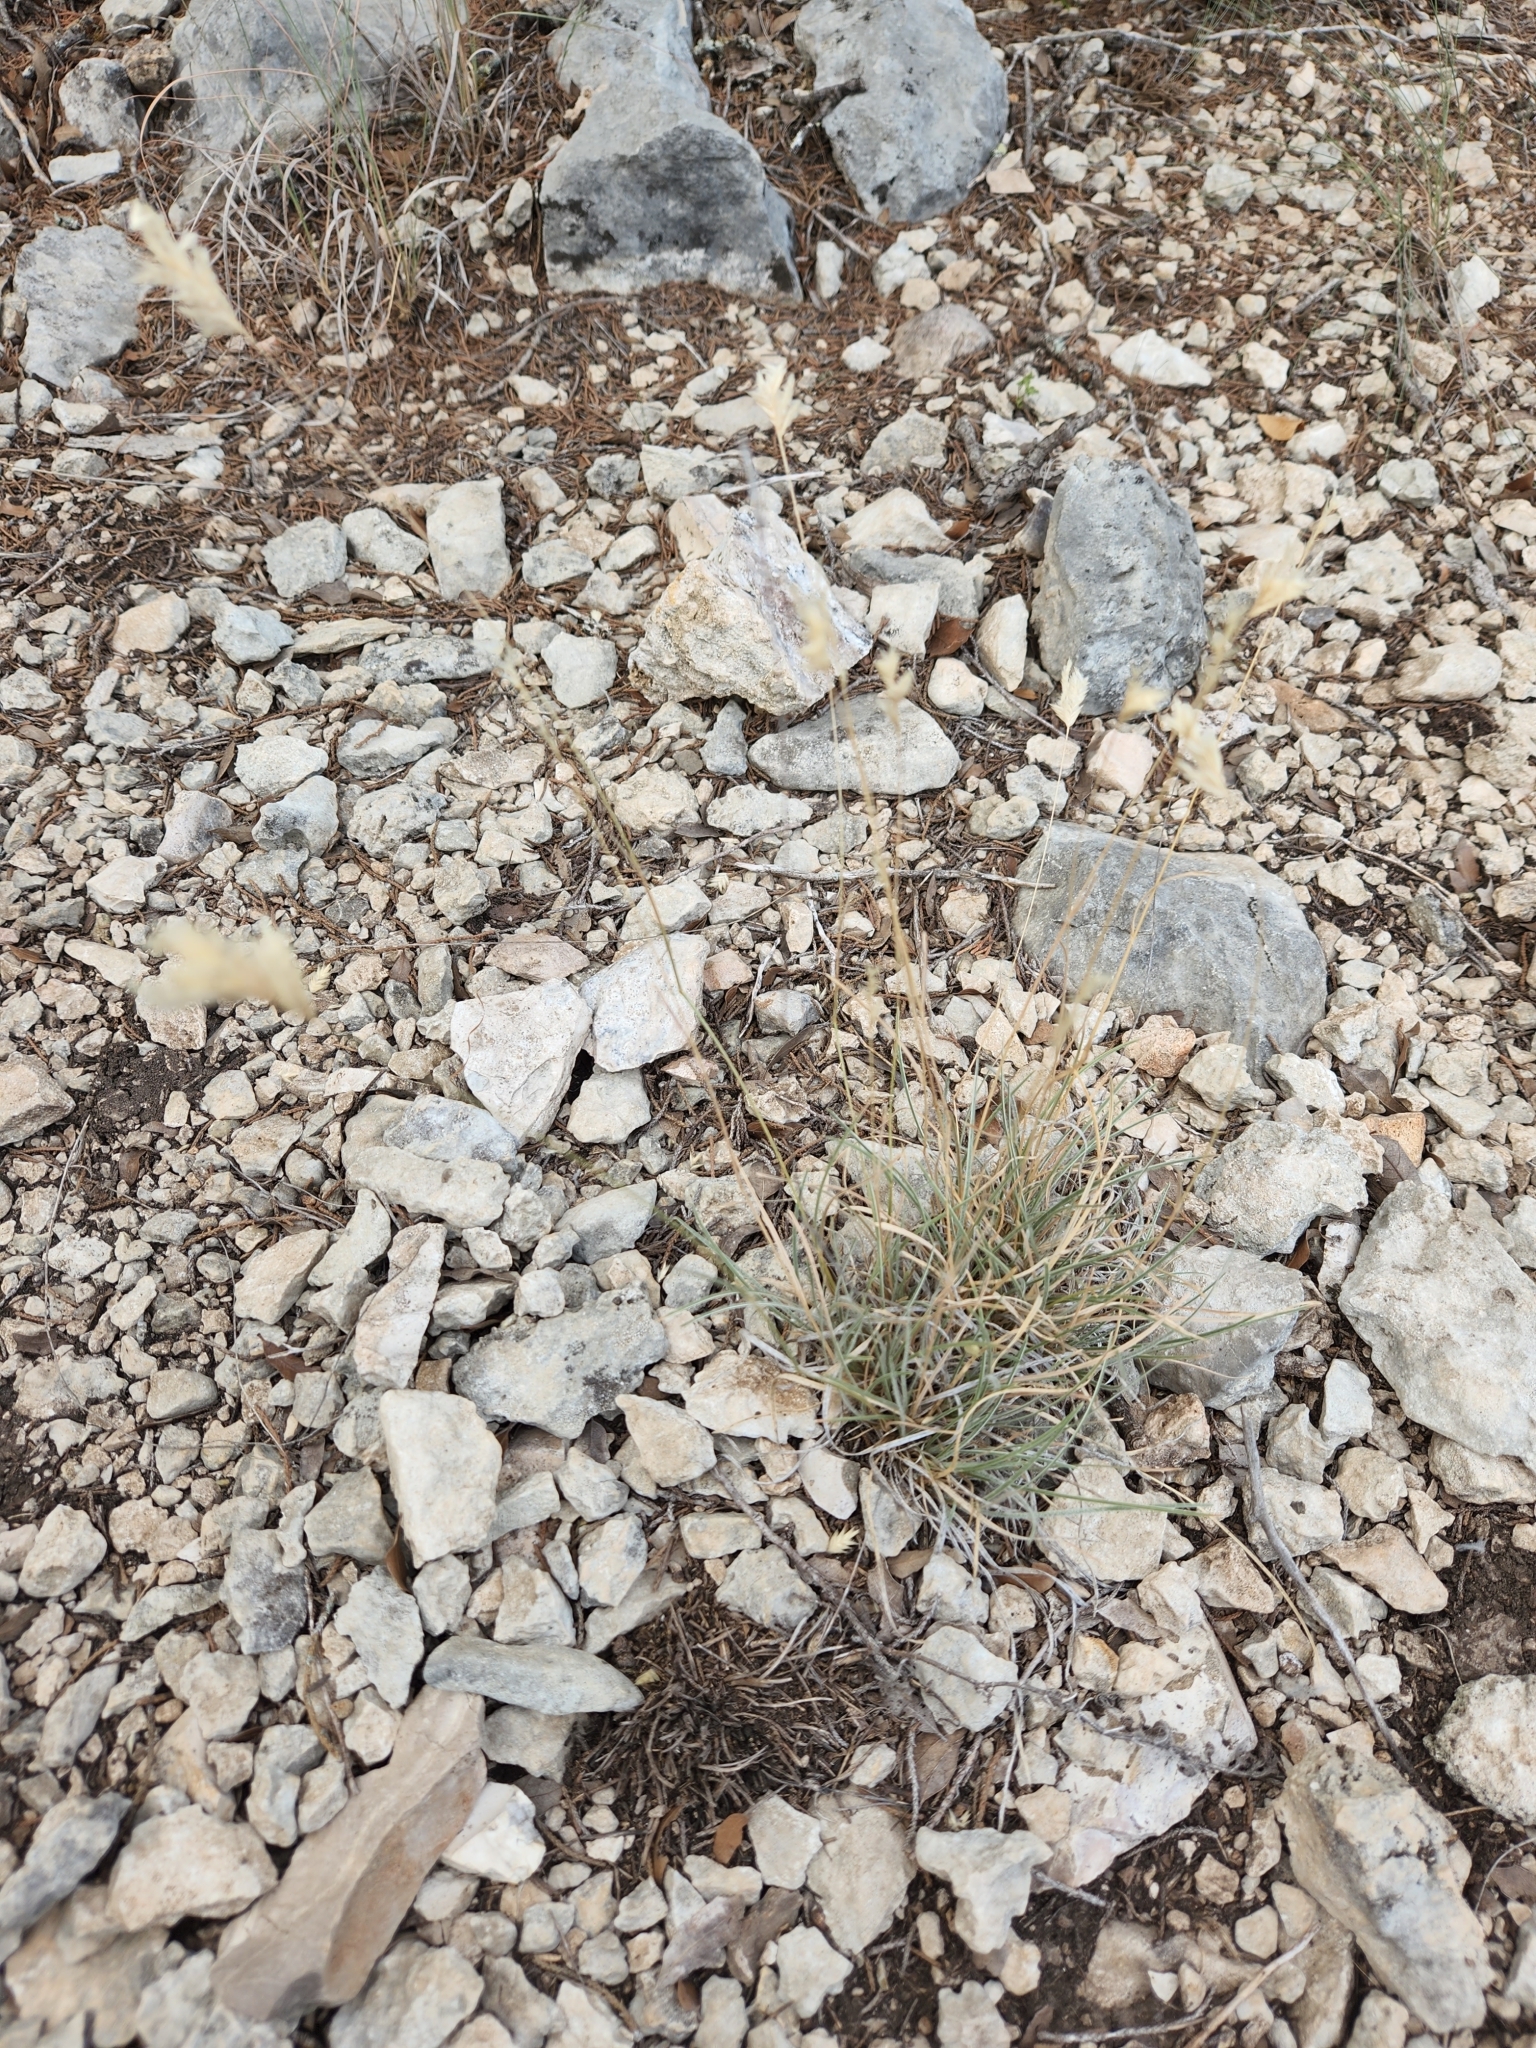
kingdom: Plantae
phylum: Tracheophyta
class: Liliopsida
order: Poales
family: Poaceae
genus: Erioneuron
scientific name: Erioneuron pilosum
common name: Hairy woolly grass
